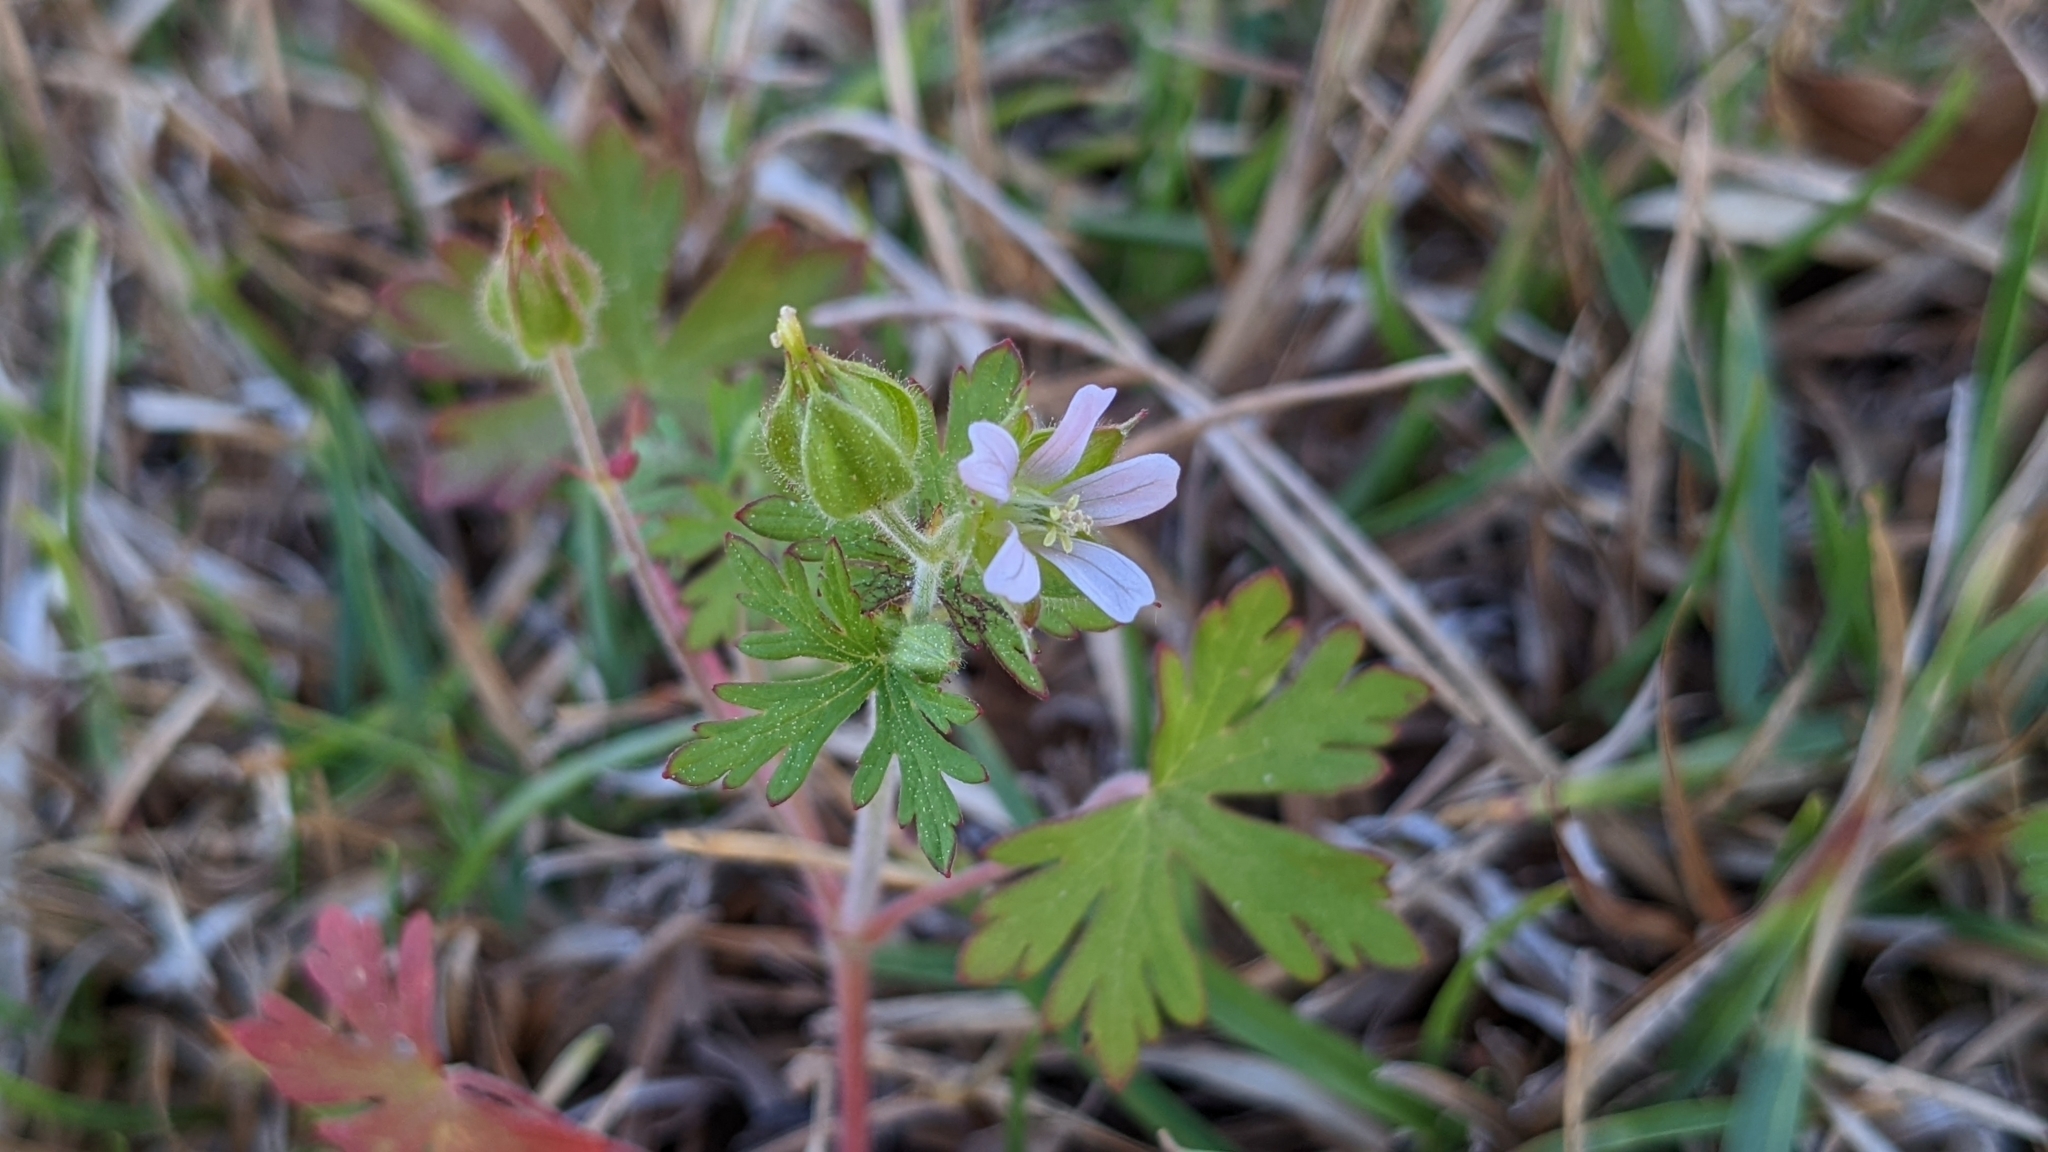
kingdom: Plantae
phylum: Tracheophyta
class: Magnoliopsida
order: Geraniales
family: Geraniaceae
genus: Geranium
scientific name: Geranium carolinianum
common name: Carolina crane's-bill
